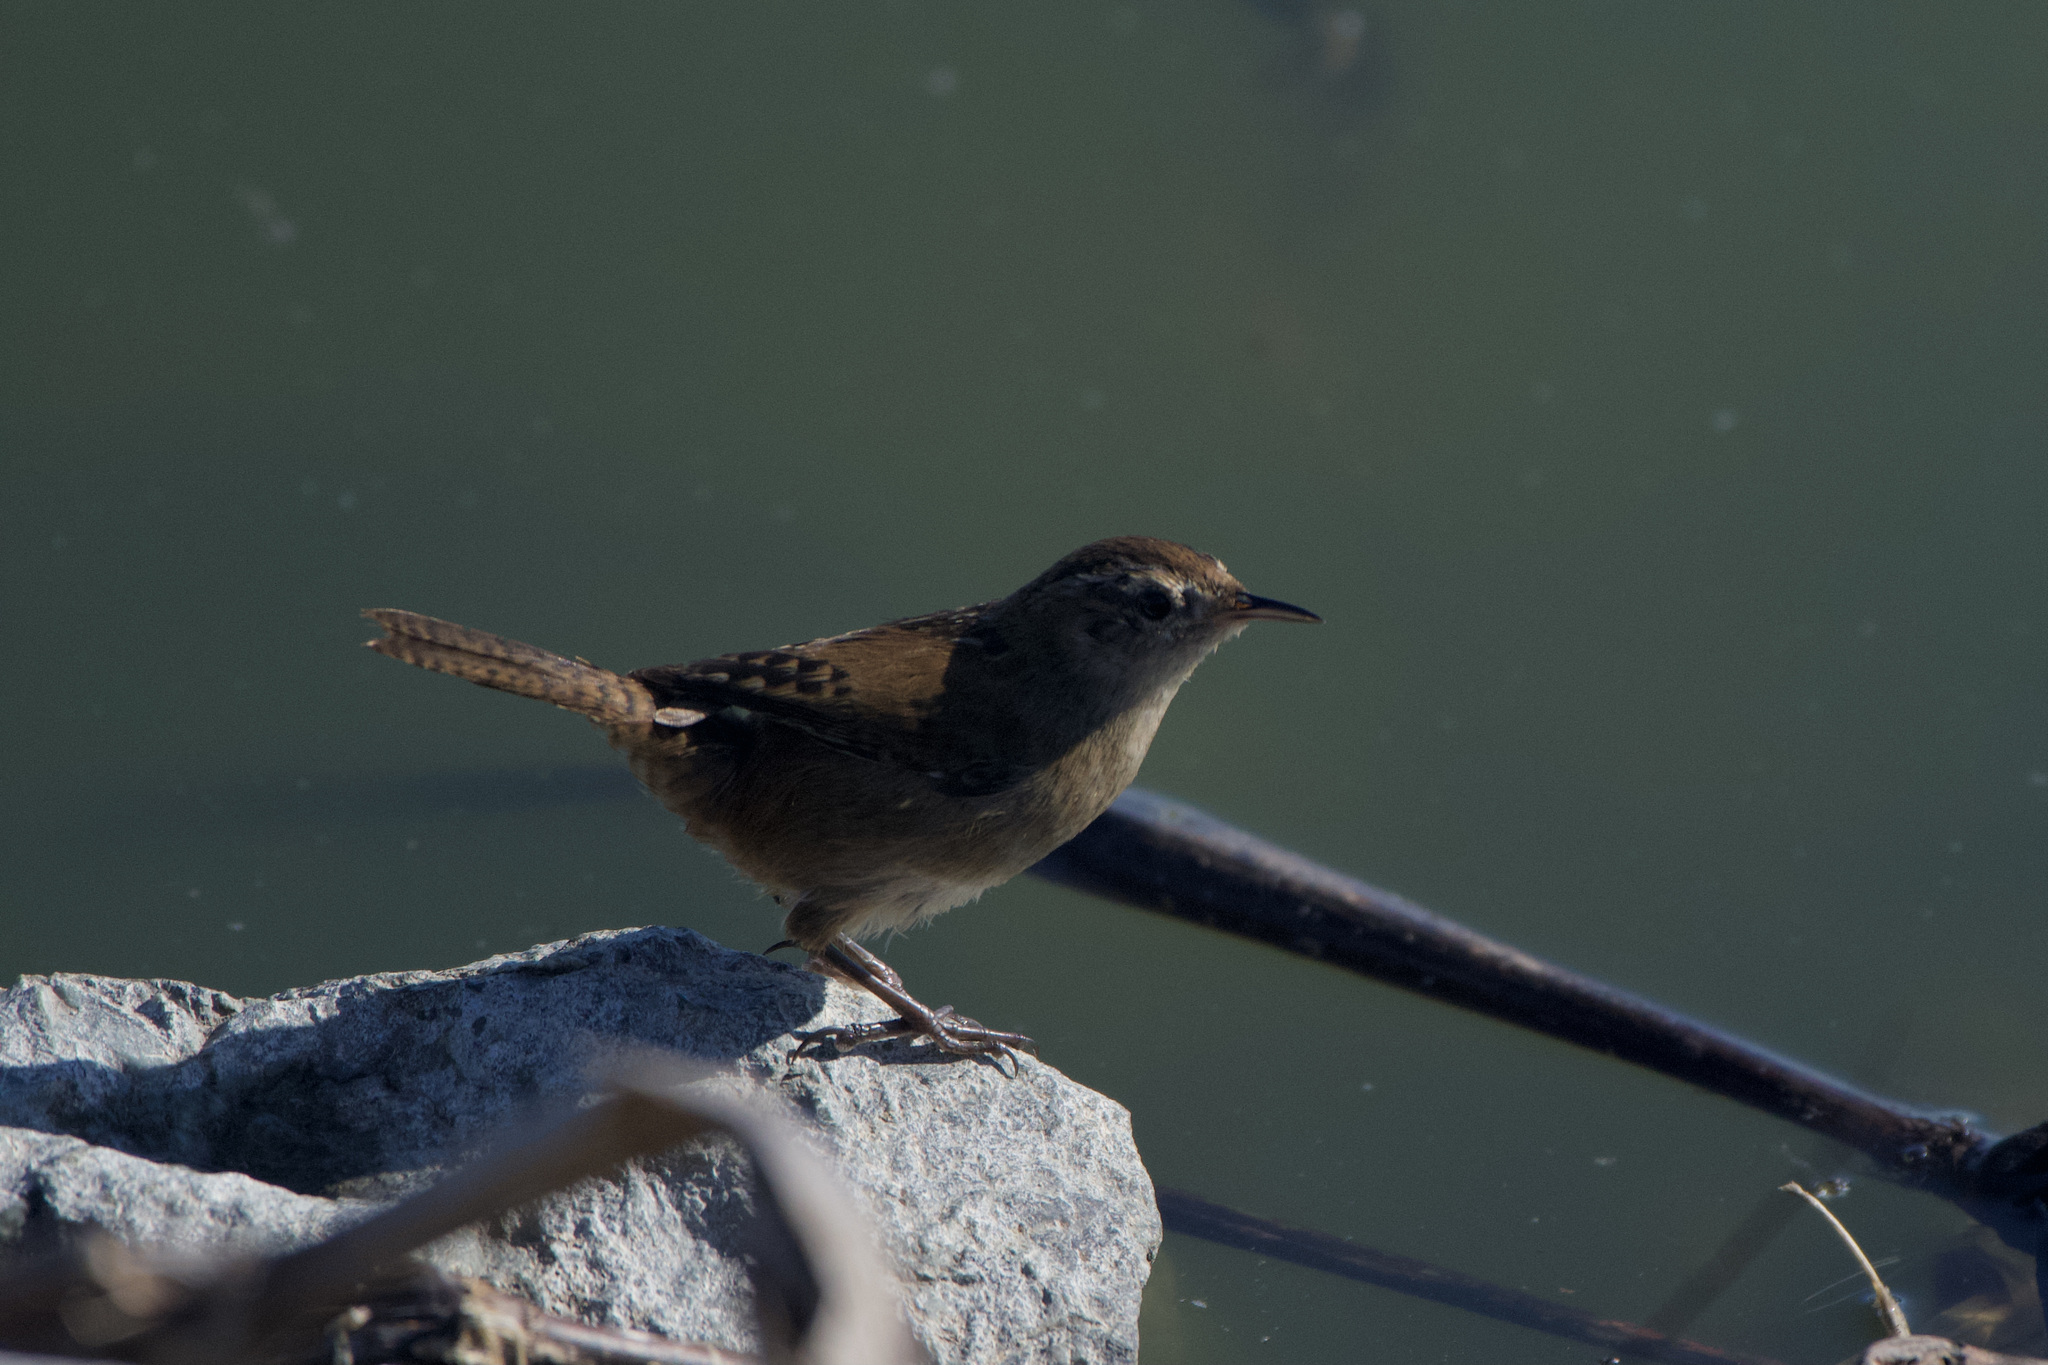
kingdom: Animalia
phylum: Chordata
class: Aves
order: Passeriformes
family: Troglodytidae
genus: Cistothorus
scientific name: Cistothorus palustris
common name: Marsh wren
